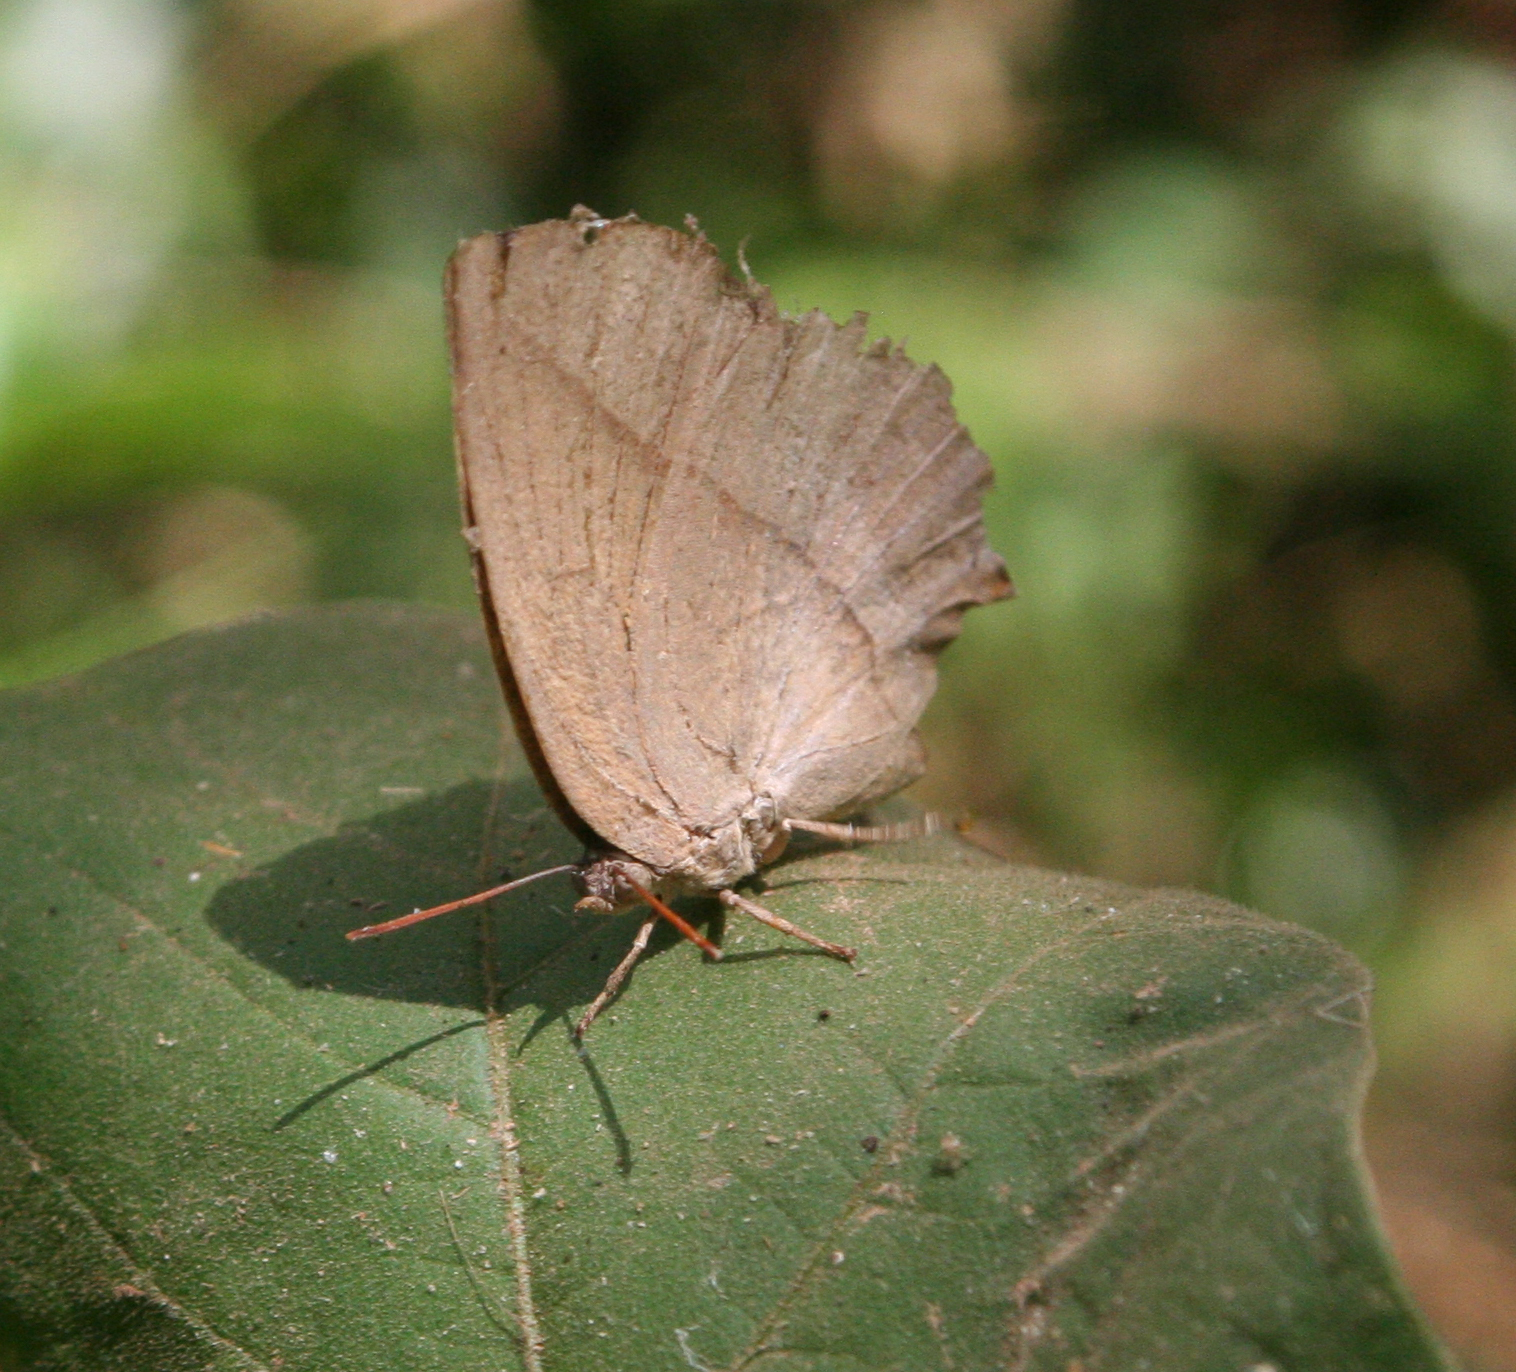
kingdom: Animalia
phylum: Arthropoda
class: Insecta
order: Lepidoptera
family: Lycaenidae
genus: Amblypodia
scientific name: Amblypodia anita
